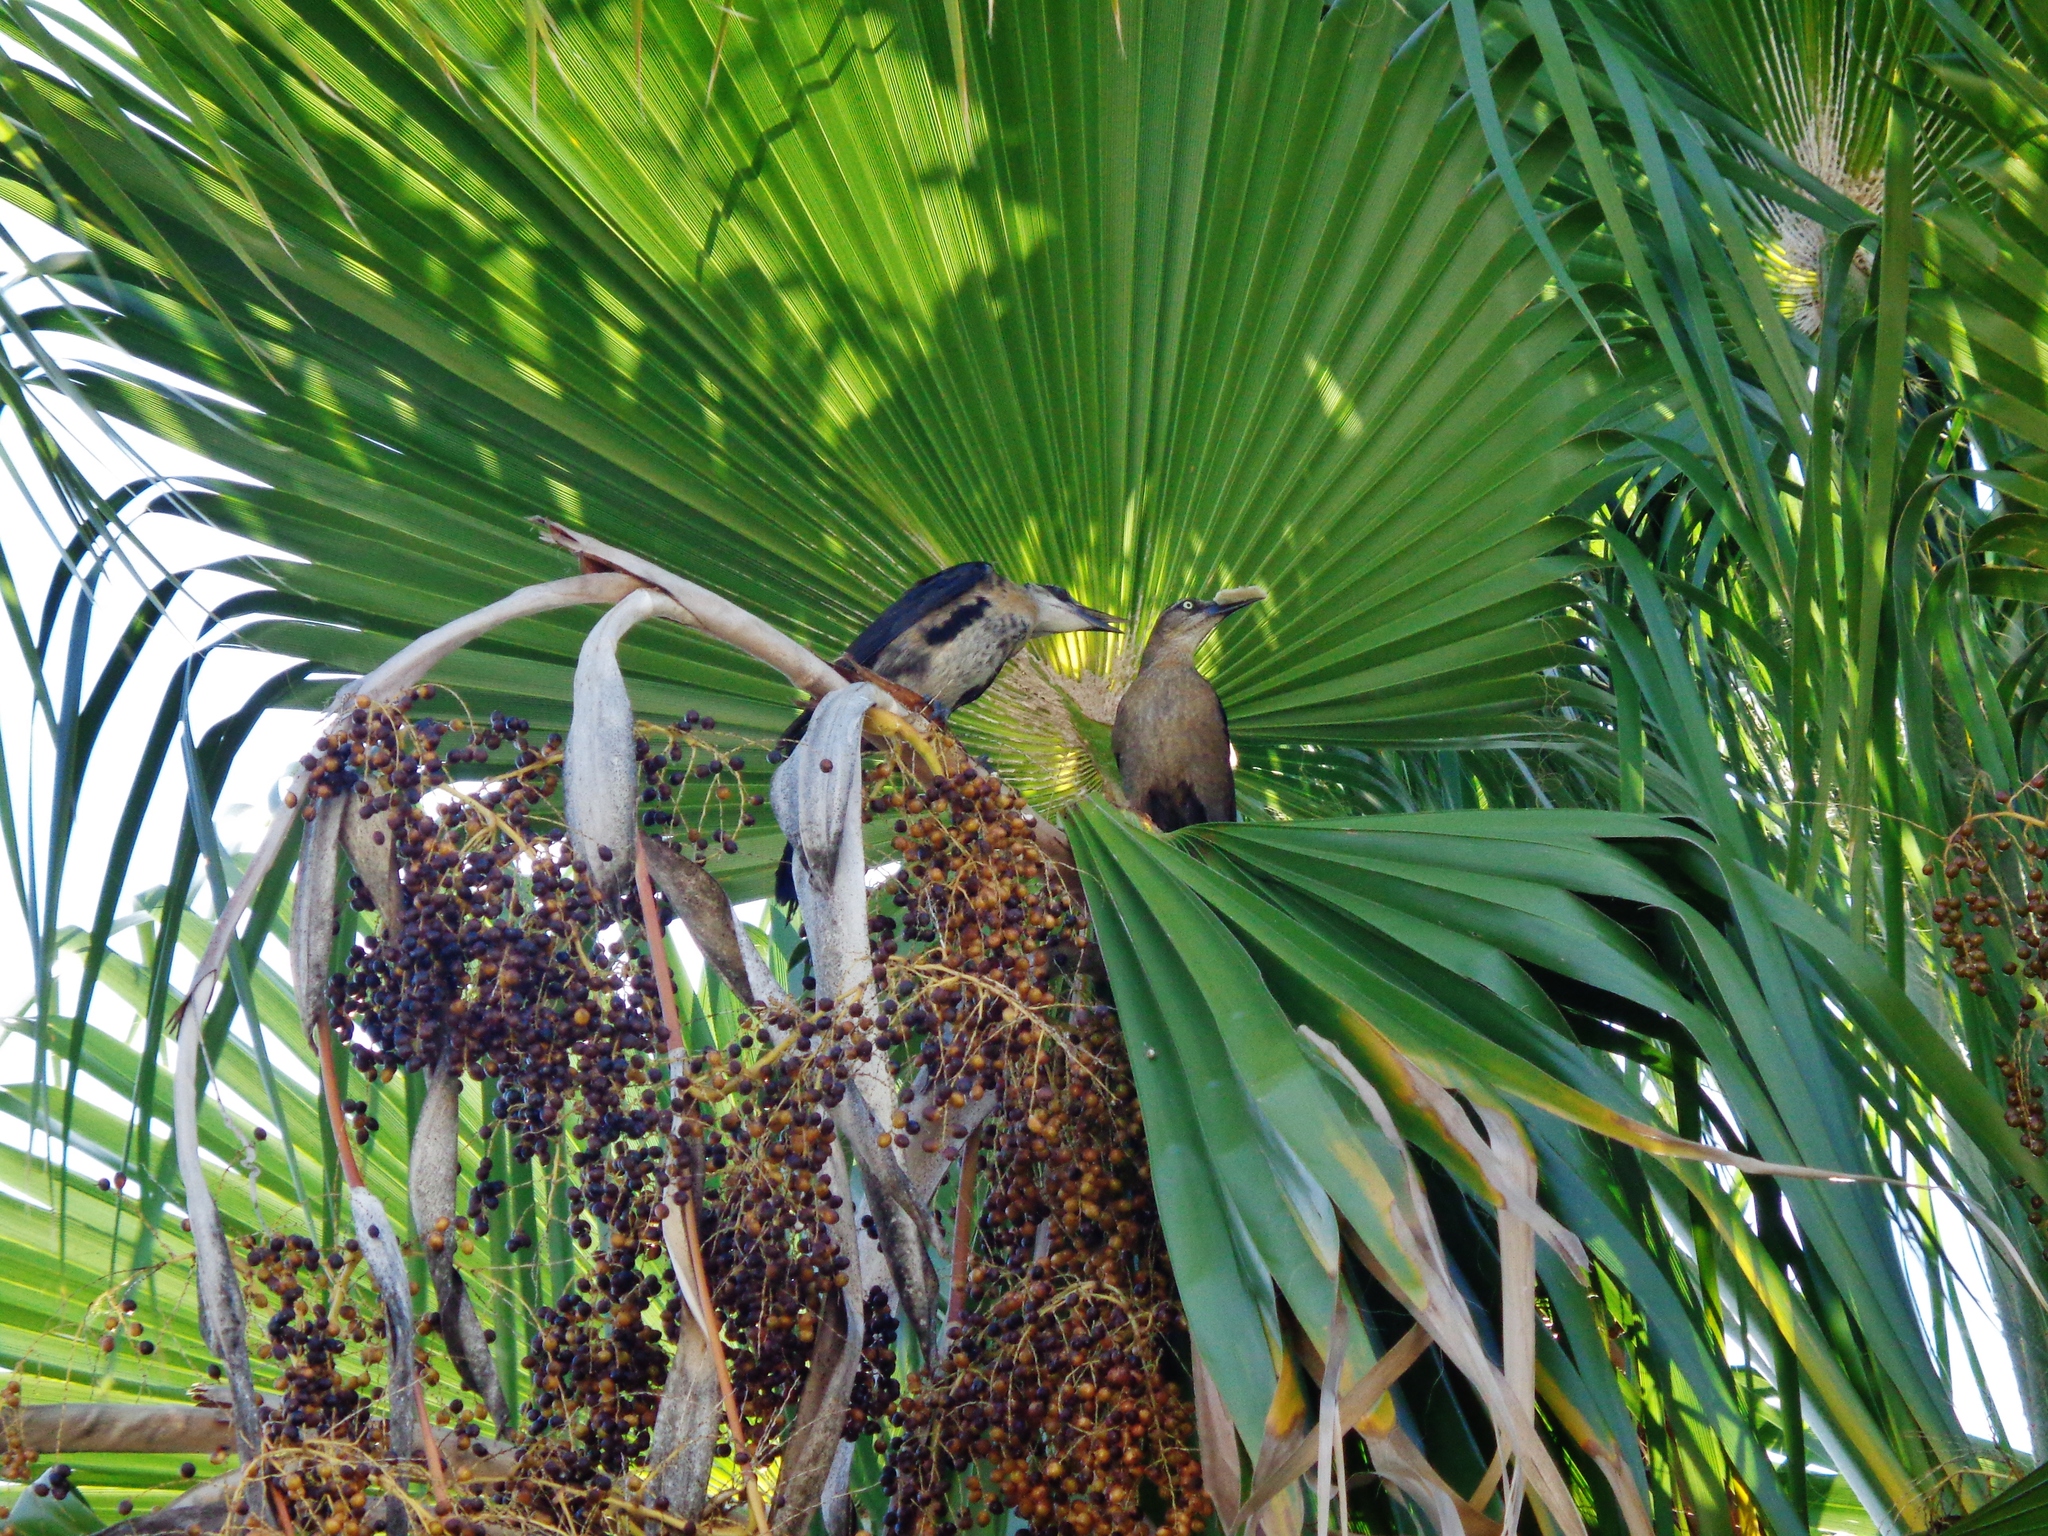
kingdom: Animalia
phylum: Chordata
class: Aves
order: Passeriformes
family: Icteridae
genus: Quiscalus
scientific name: Quiscalus mexicanus
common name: Great-tailed grackle
